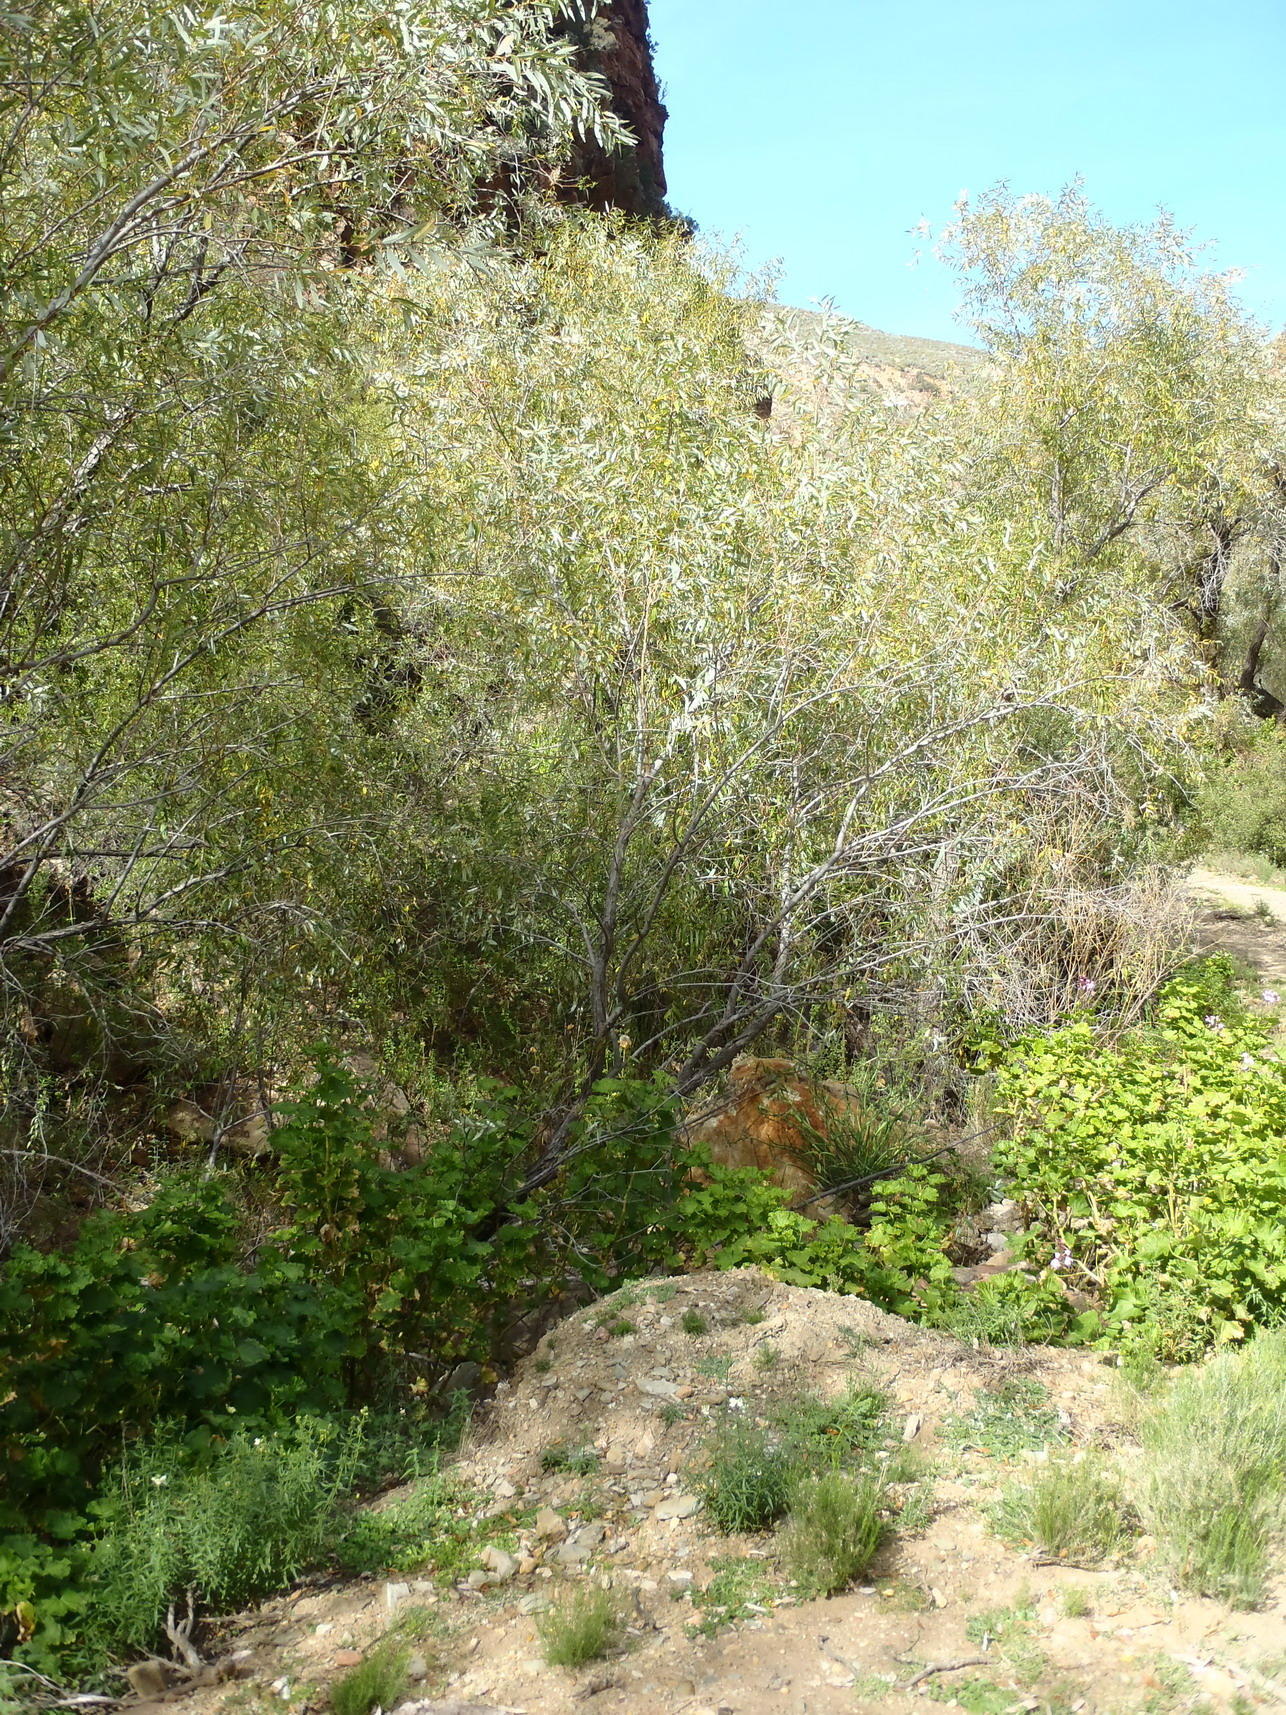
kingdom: Plantae
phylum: Tracheophyta
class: Magnoliopsida
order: Malpighiales
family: Salicaceae
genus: Salix
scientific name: Salix mucronata
